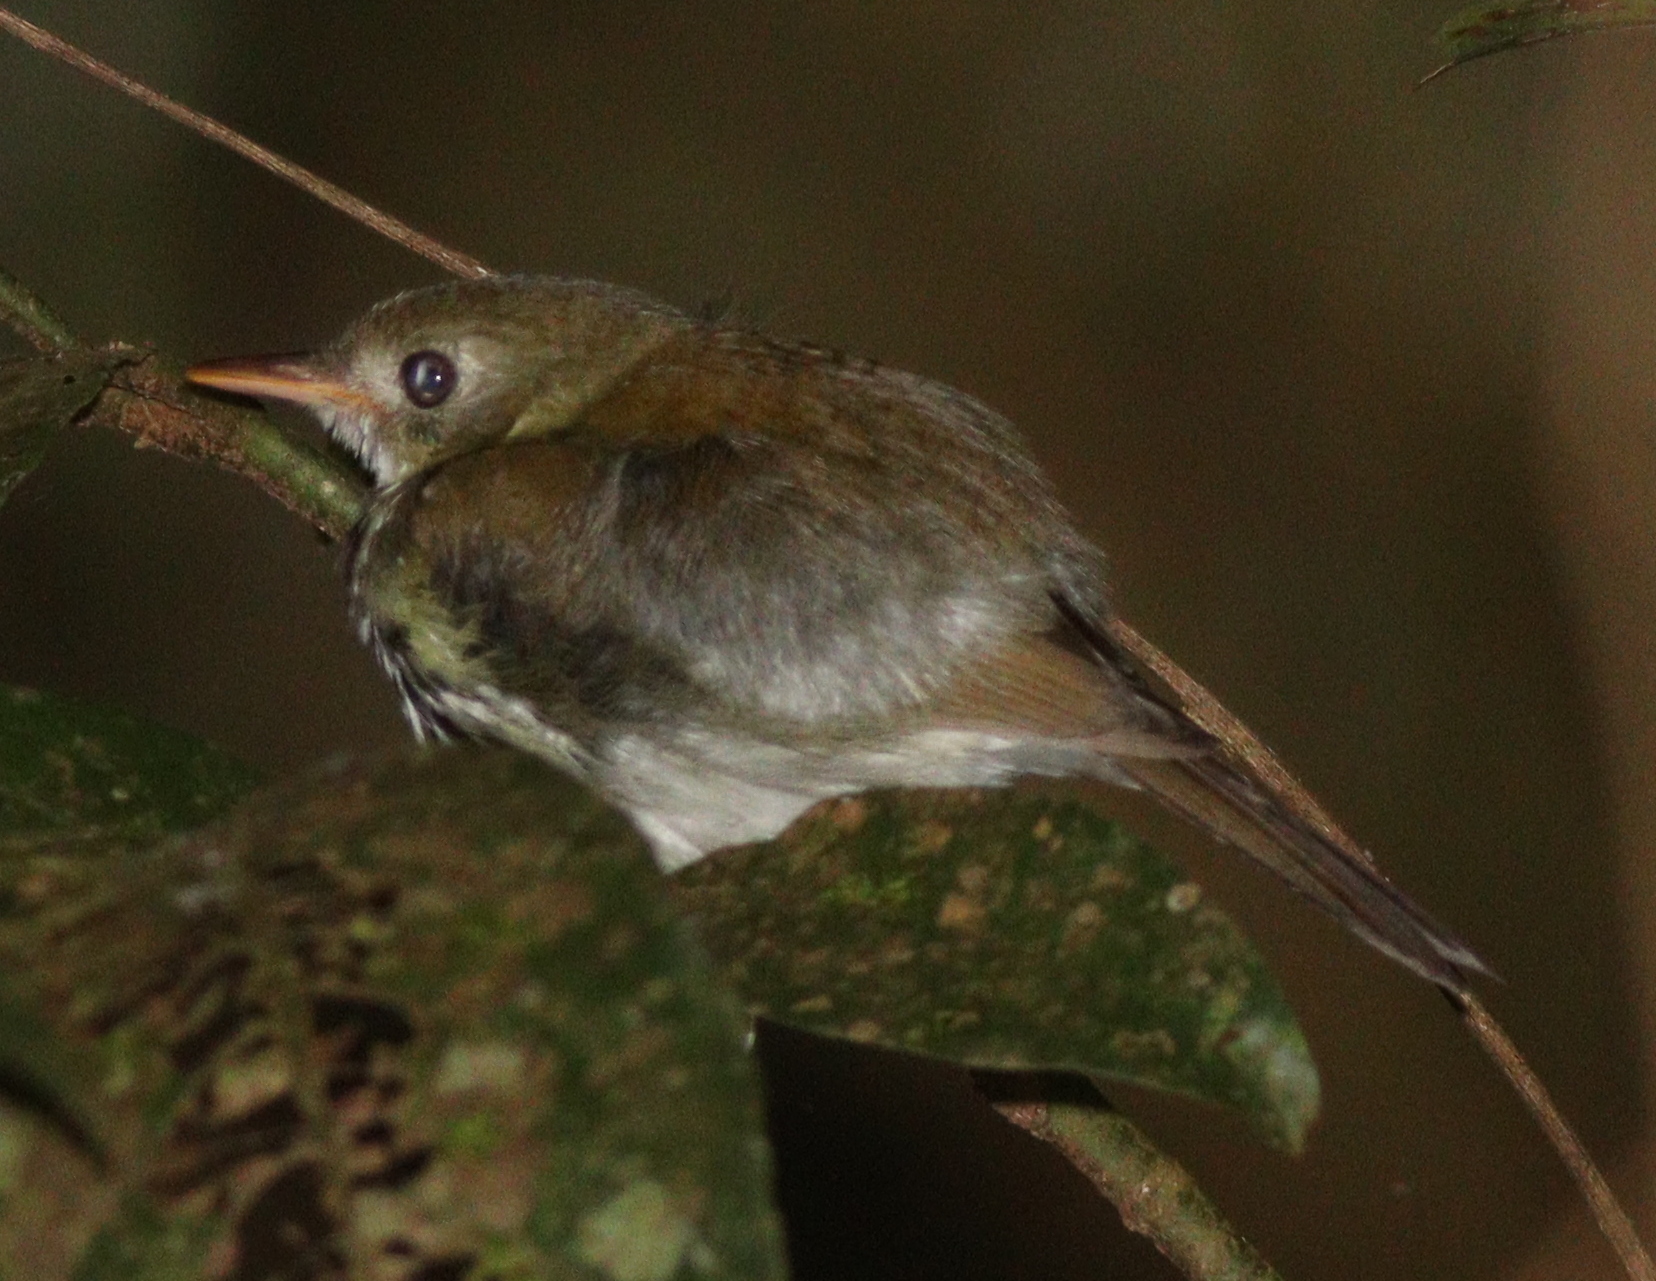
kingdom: Animalia
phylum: Chordata
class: Aves
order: Passeriformes
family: Tyrannidae
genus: Corythopis
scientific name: Corythopis delalandi
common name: Southern antpipit
